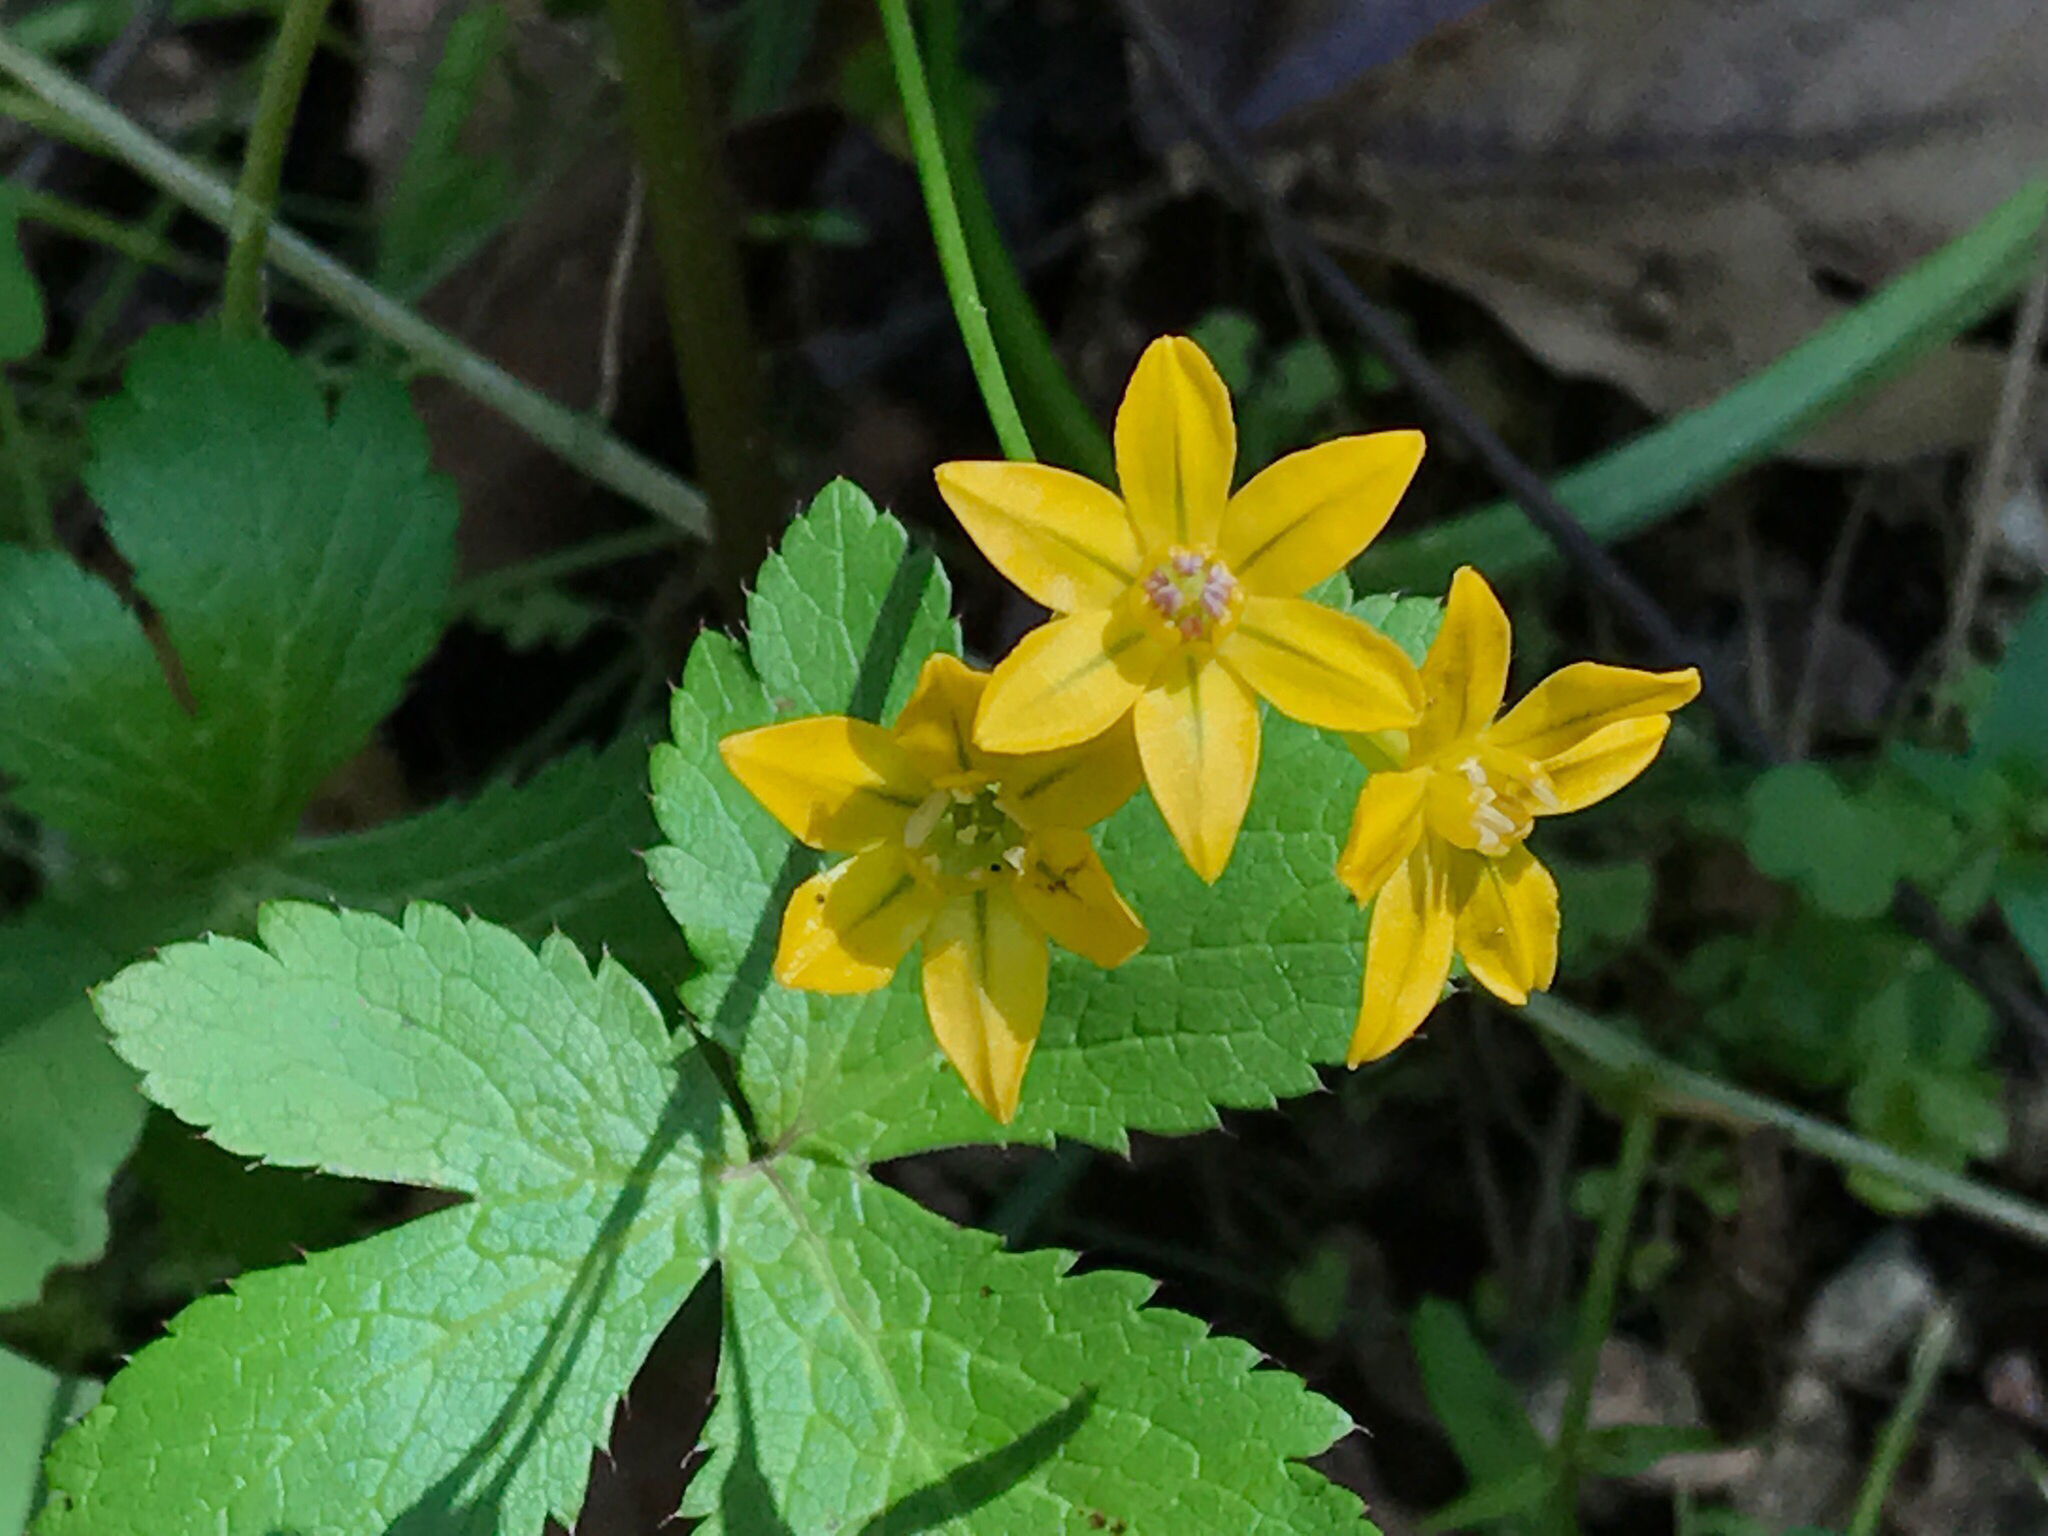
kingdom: Plantae
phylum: Tracheophyta
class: Liliopsida
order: Asparagales
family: Asparagaceae
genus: Triteleia
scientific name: Triteleia lugens
